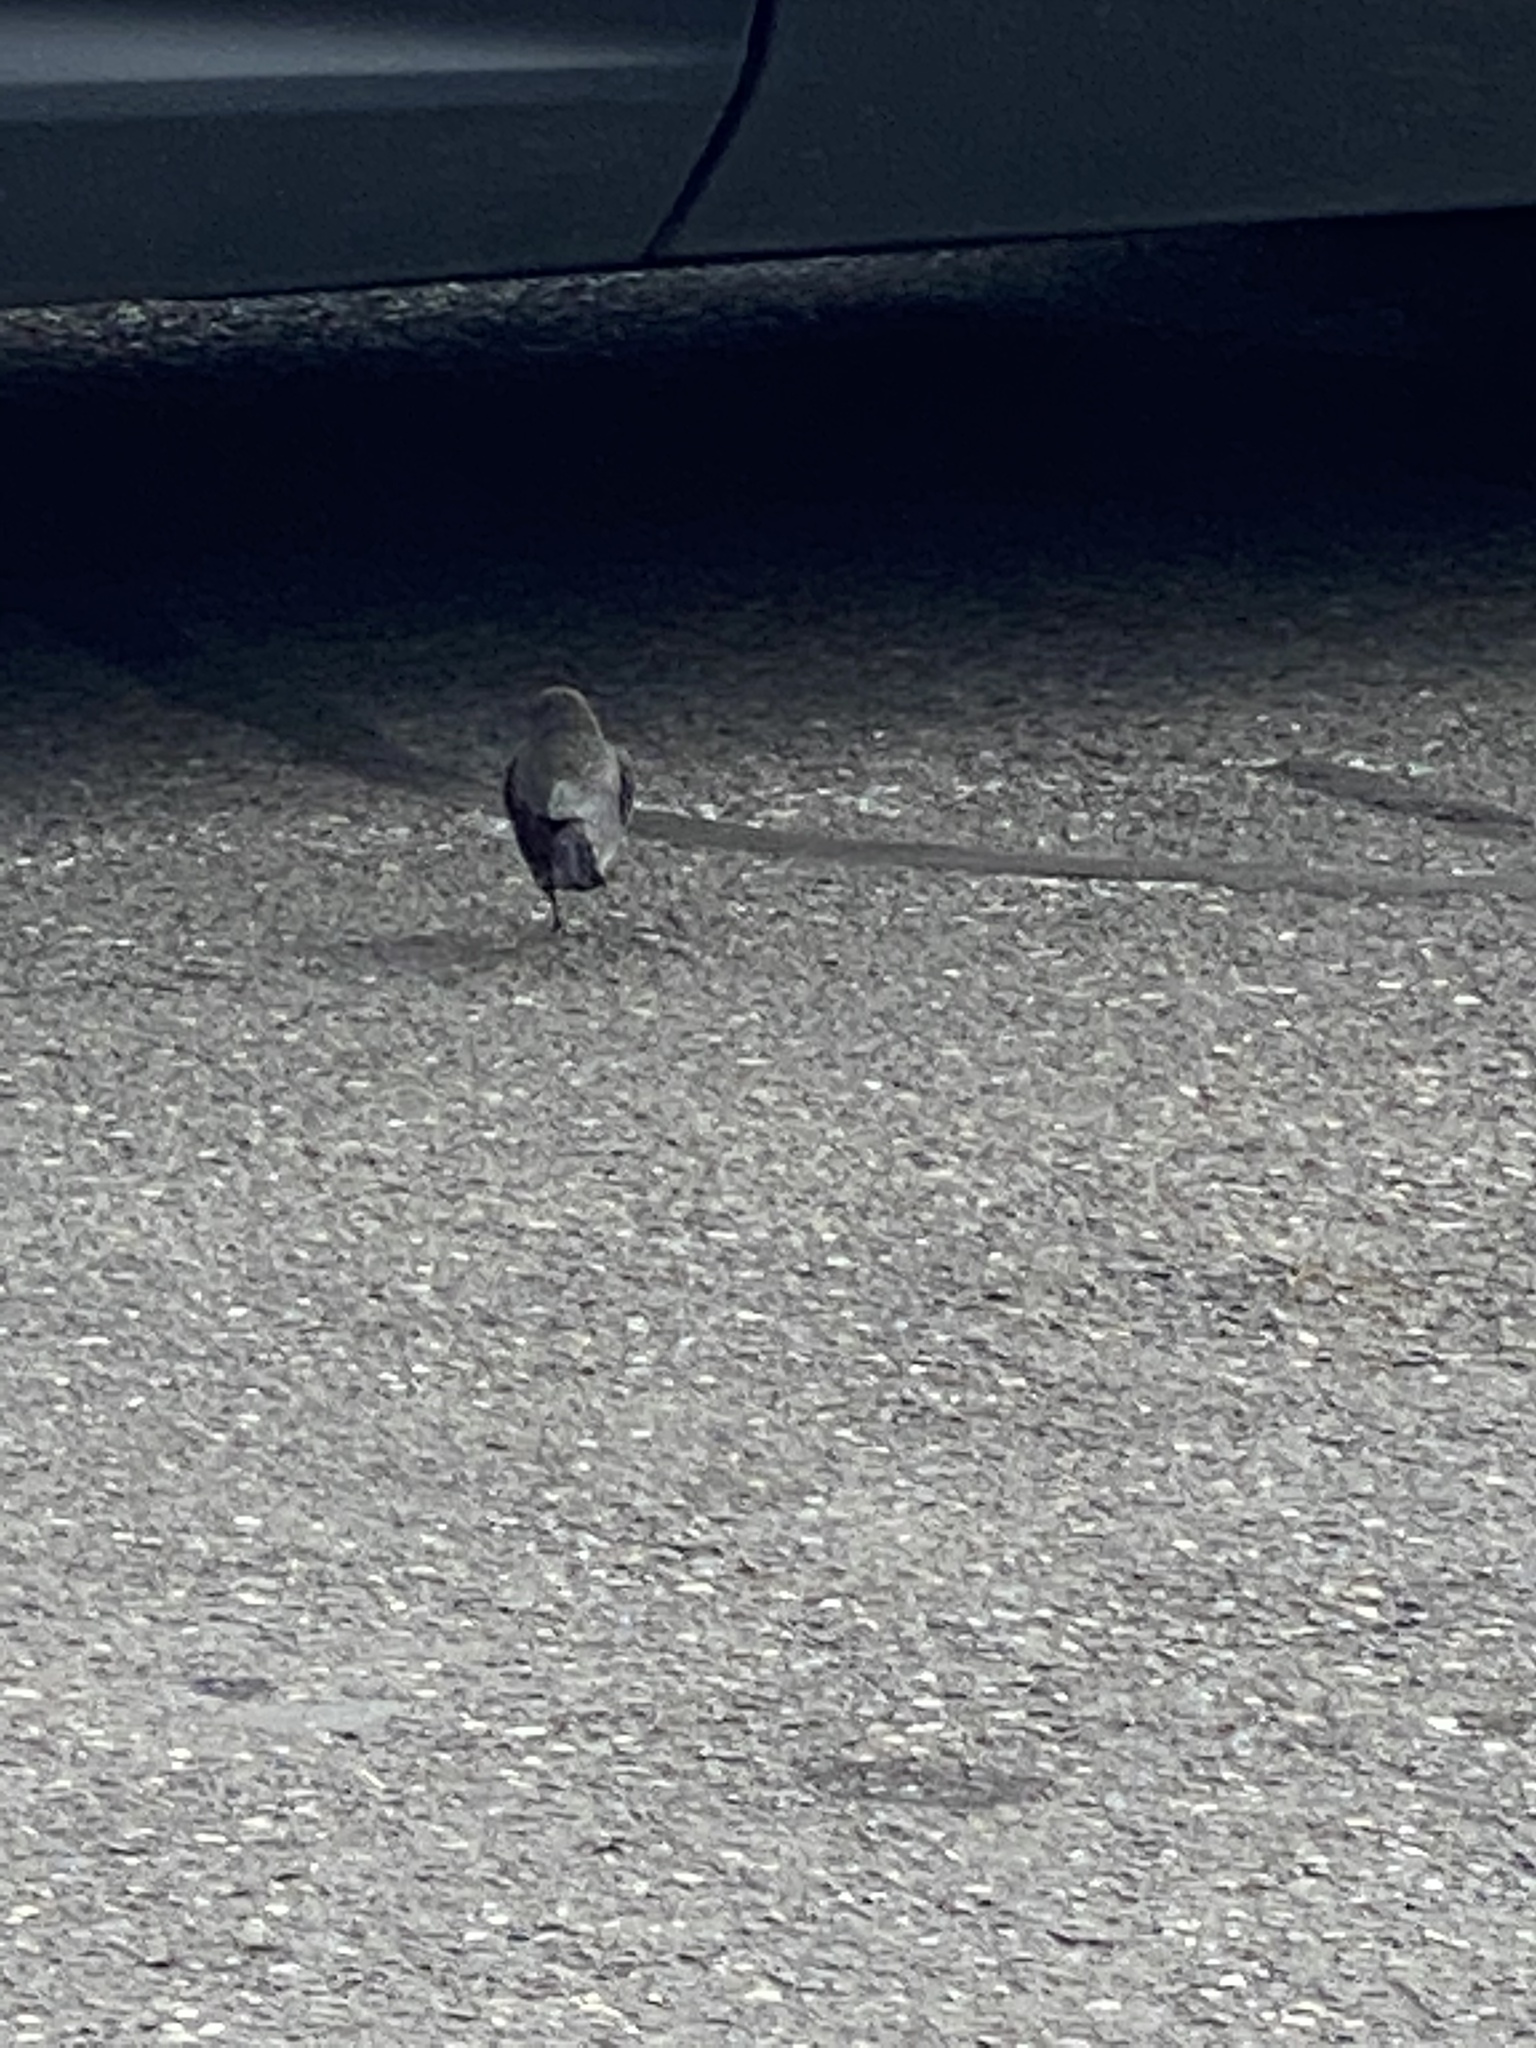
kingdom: Animalia
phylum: Chordata
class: Aves
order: Passeriformes
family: Icteridae
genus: Euphagus
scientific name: Euphagus cyanocephalus
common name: Brewer's blackbird
